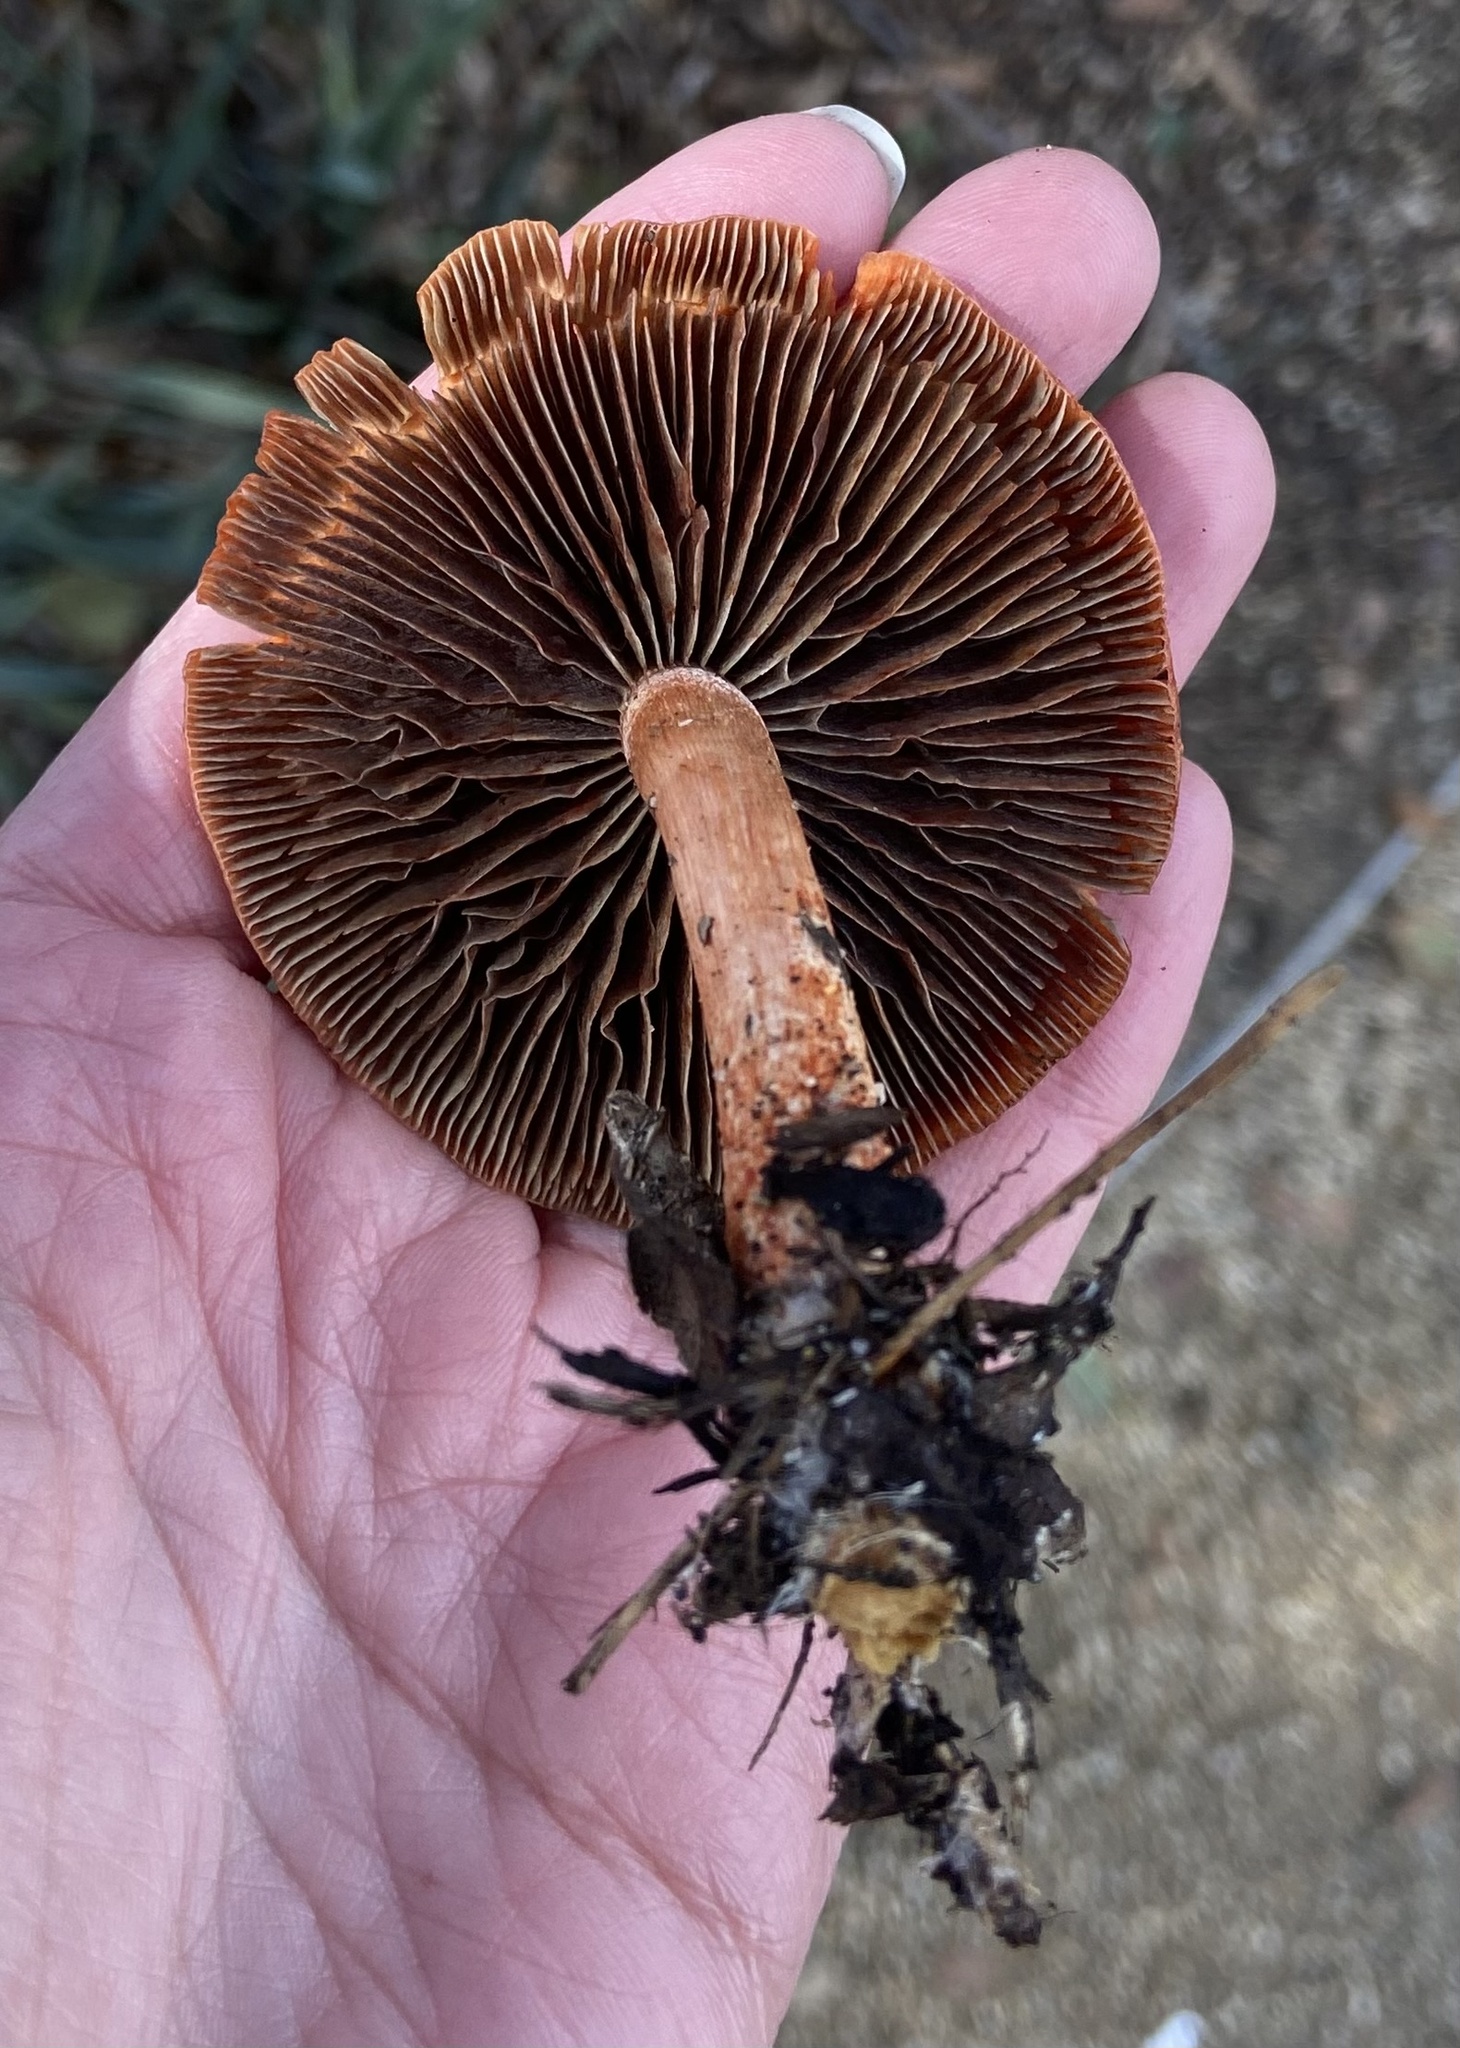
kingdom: Fungi
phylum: Basidiomycota
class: Agaricomycetes
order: Agaricales
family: Strophariaceae
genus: Leratiomyces
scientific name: Leratiomyces ceres
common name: Redlead roundhead
